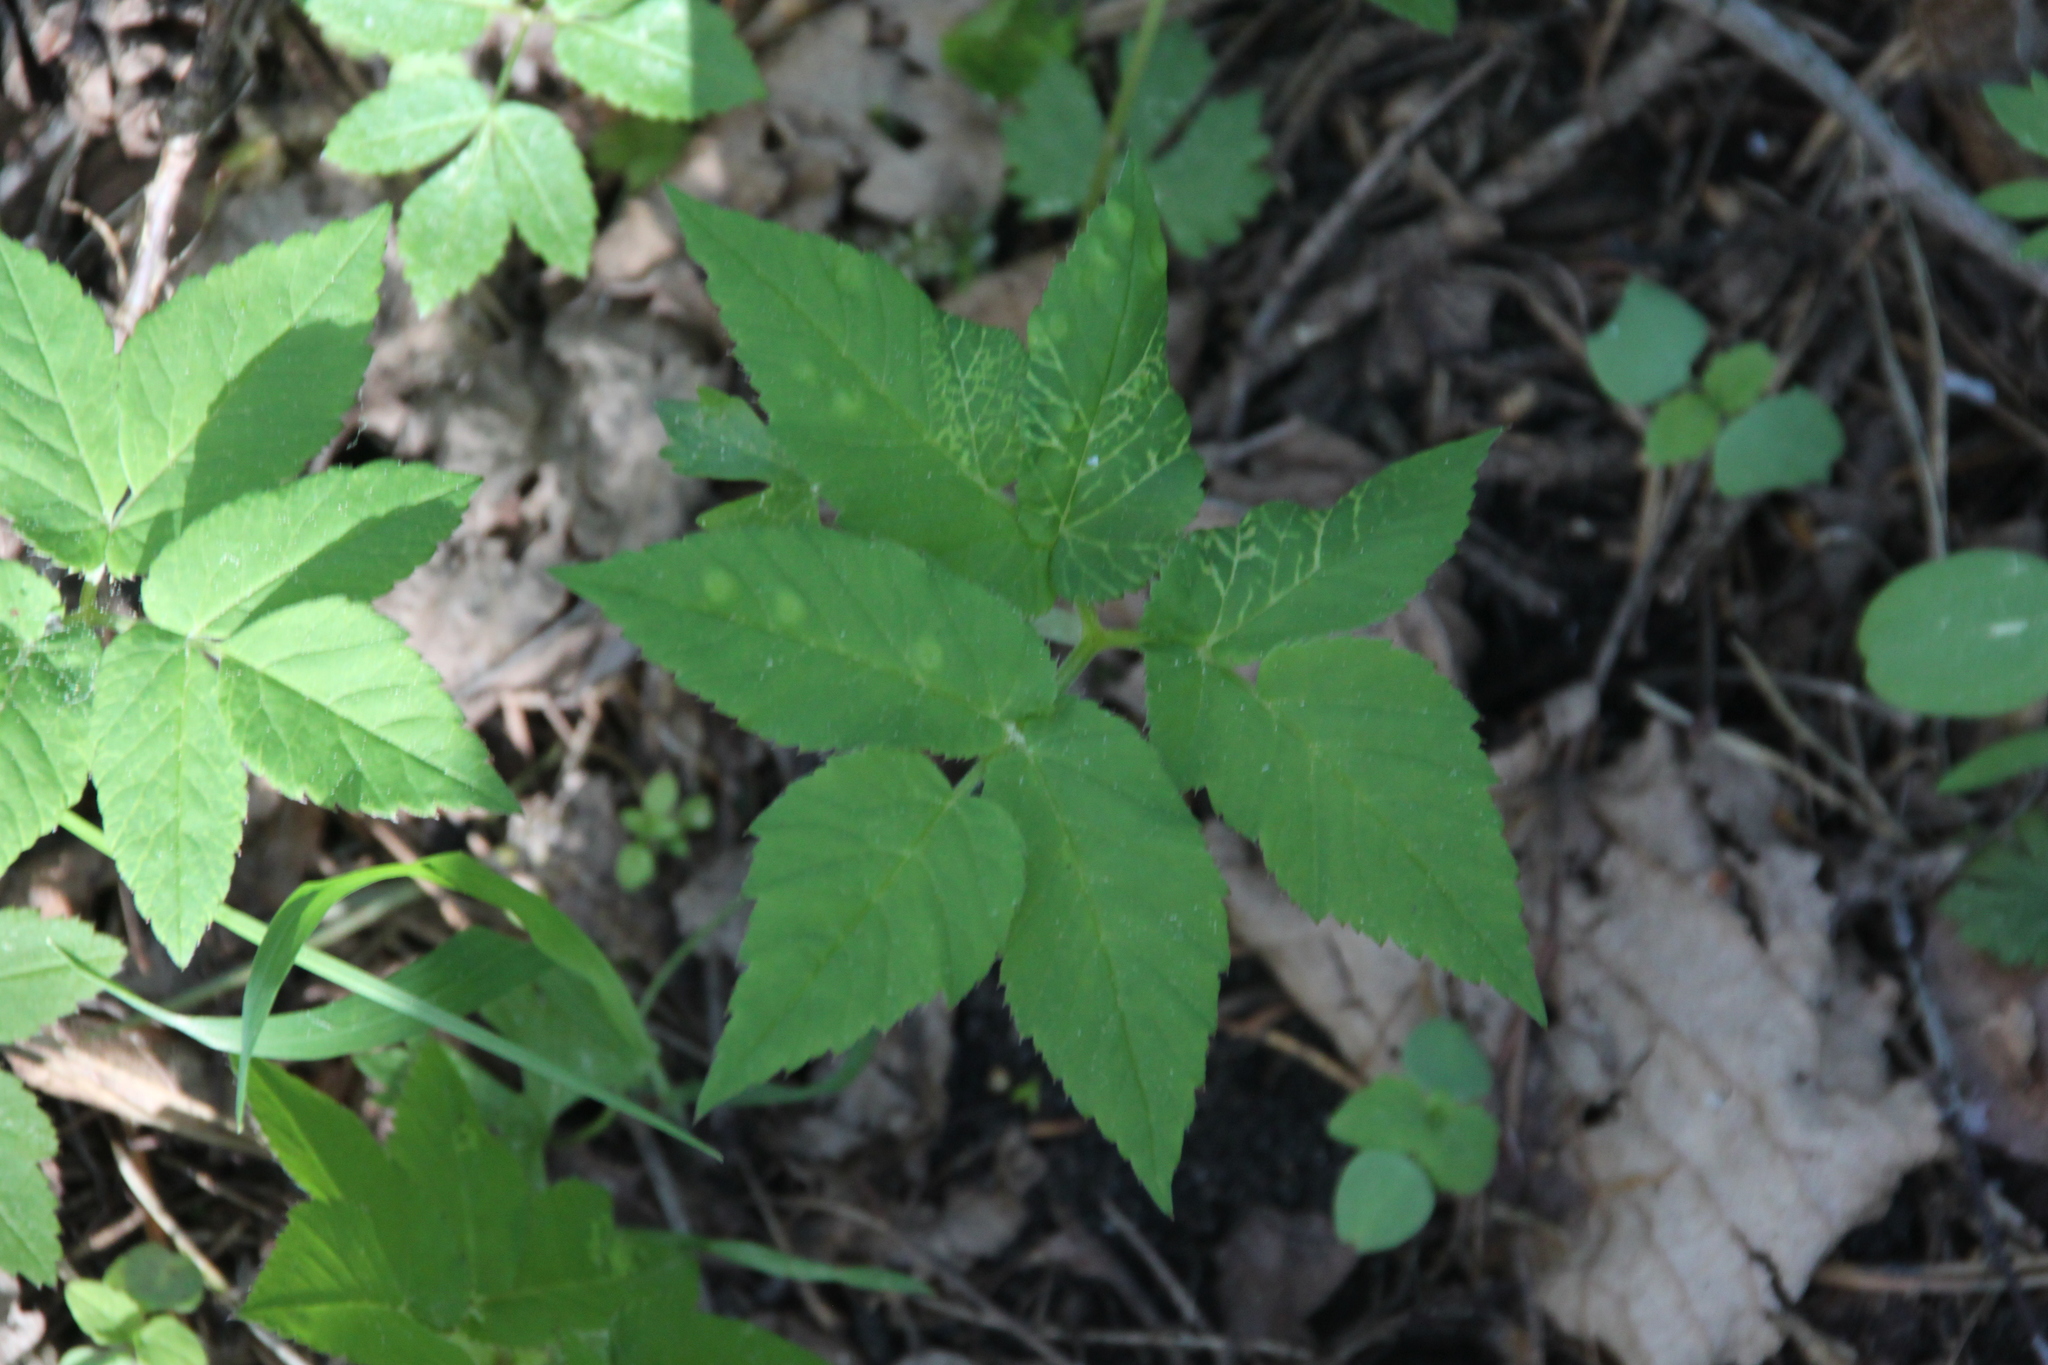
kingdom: Plantae
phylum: Tracheophyta
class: Magnoliopsida
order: Apiales
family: Apiaceae
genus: Aegopodium
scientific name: Aegopodium podagraria
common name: Ground-elder
